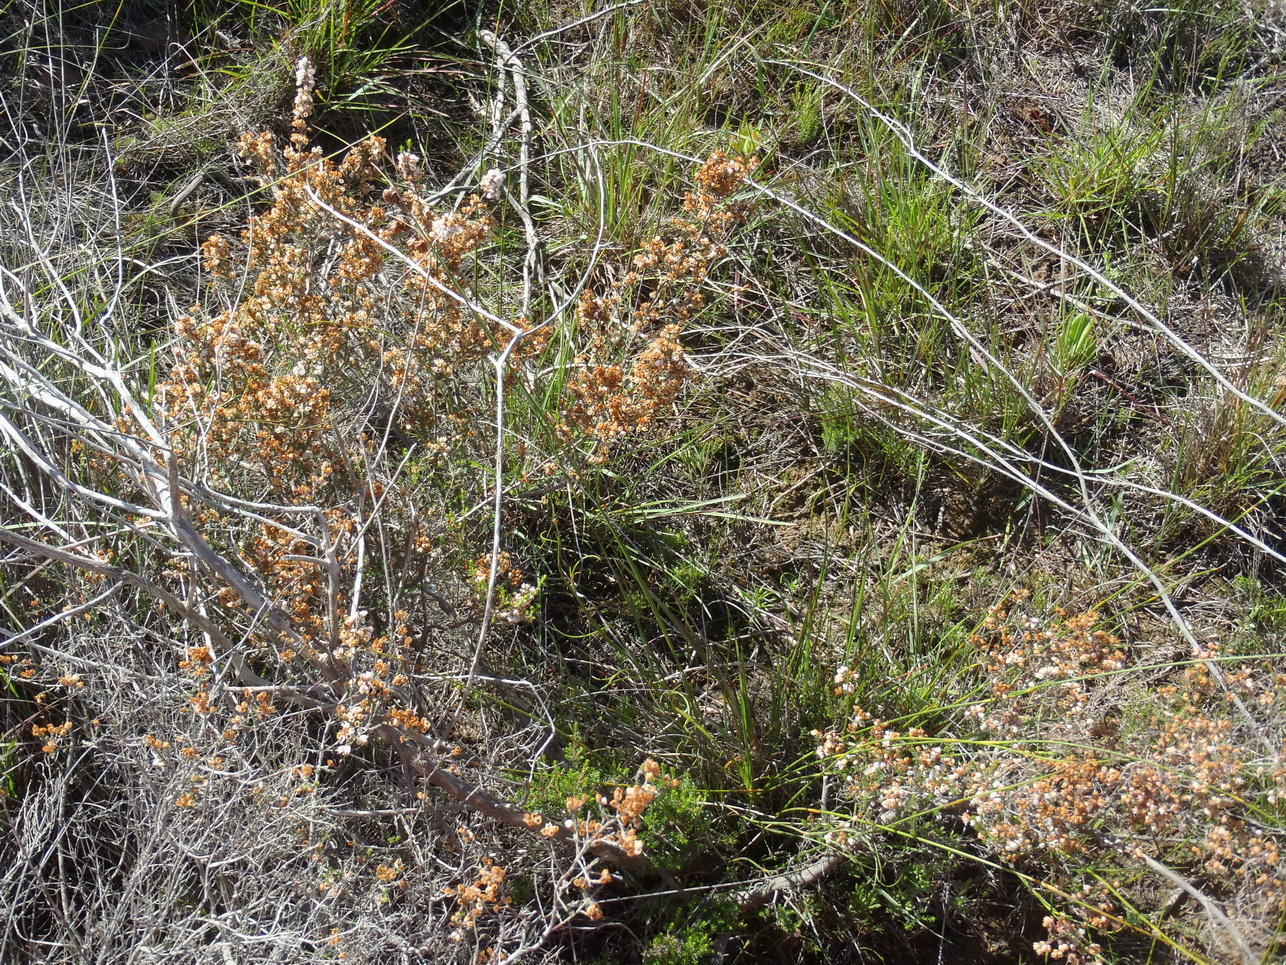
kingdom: Plantae
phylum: Tracheophyta
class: Magnoliopsida
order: Ericales
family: Ericaceae
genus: Erica
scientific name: Erica quadrangularis
